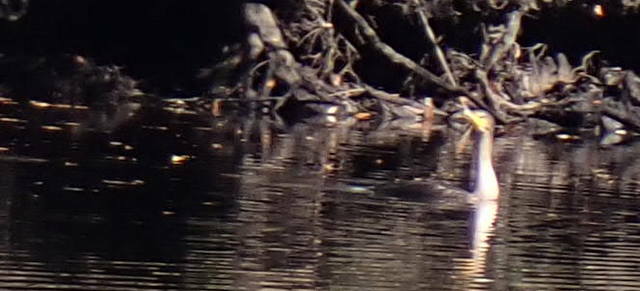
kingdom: Animalia
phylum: Chordata
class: Aves
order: Suliformes
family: Phalacrocoracidae
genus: Phalacrocorax
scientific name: Phalacrocorax auritus
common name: Double-crested cormorant
